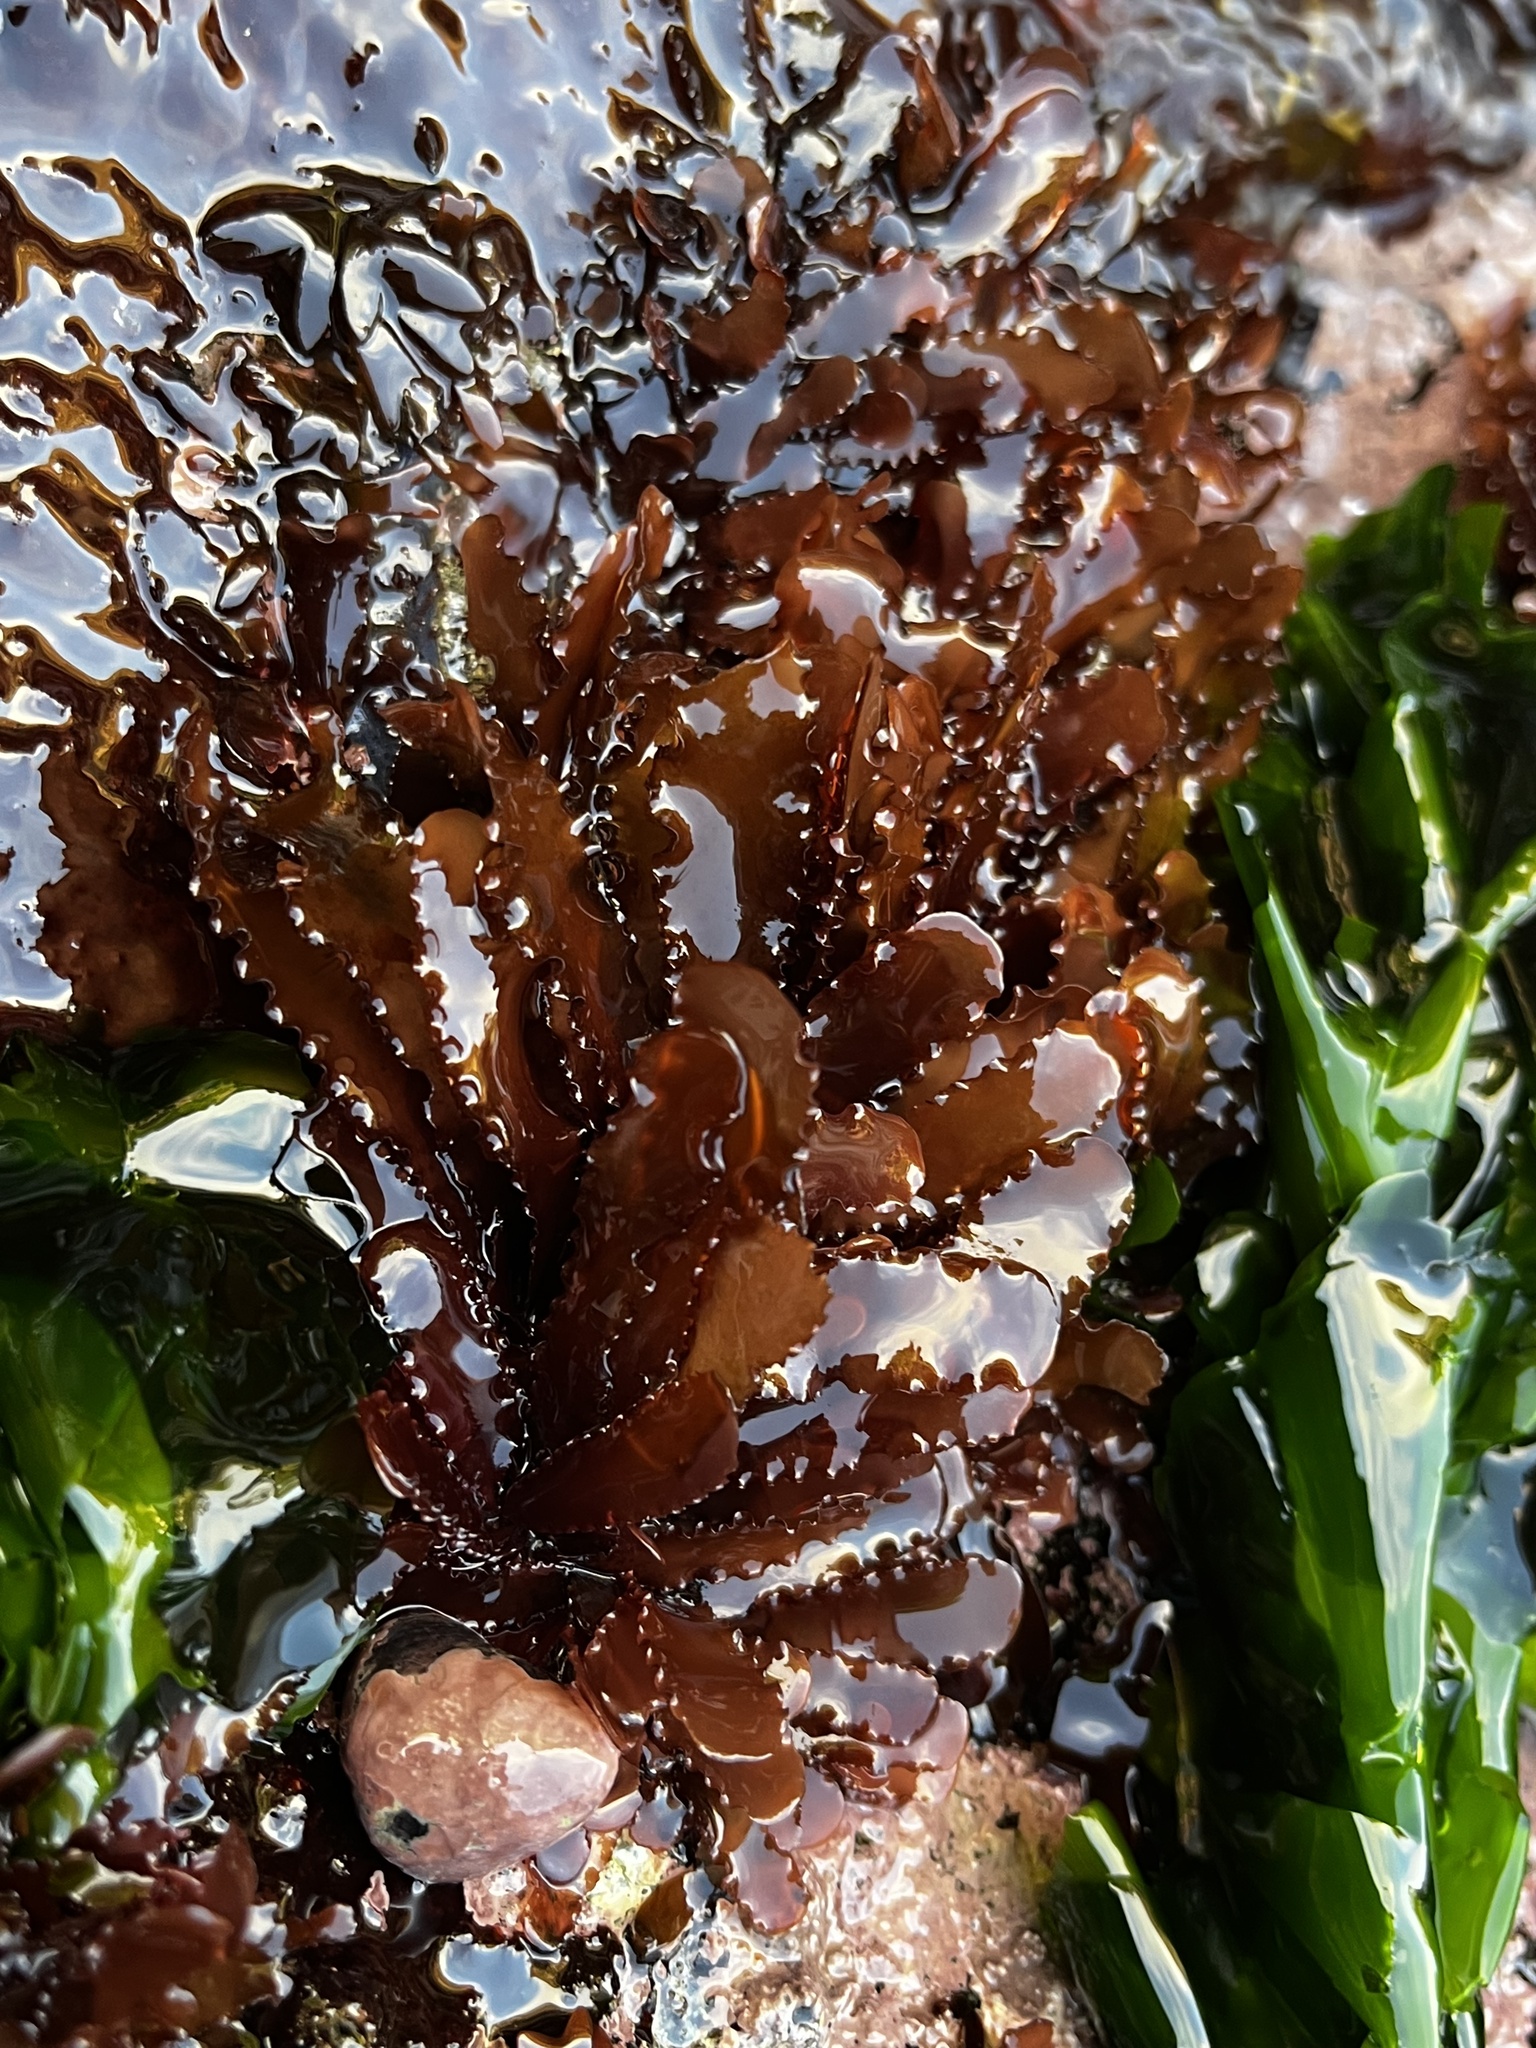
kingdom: Plantae
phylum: Rhodophyta
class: Florideophyceae
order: Gigartinales
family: Phyllophoraceae
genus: Schottera
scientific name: Schottera nicaeensis
